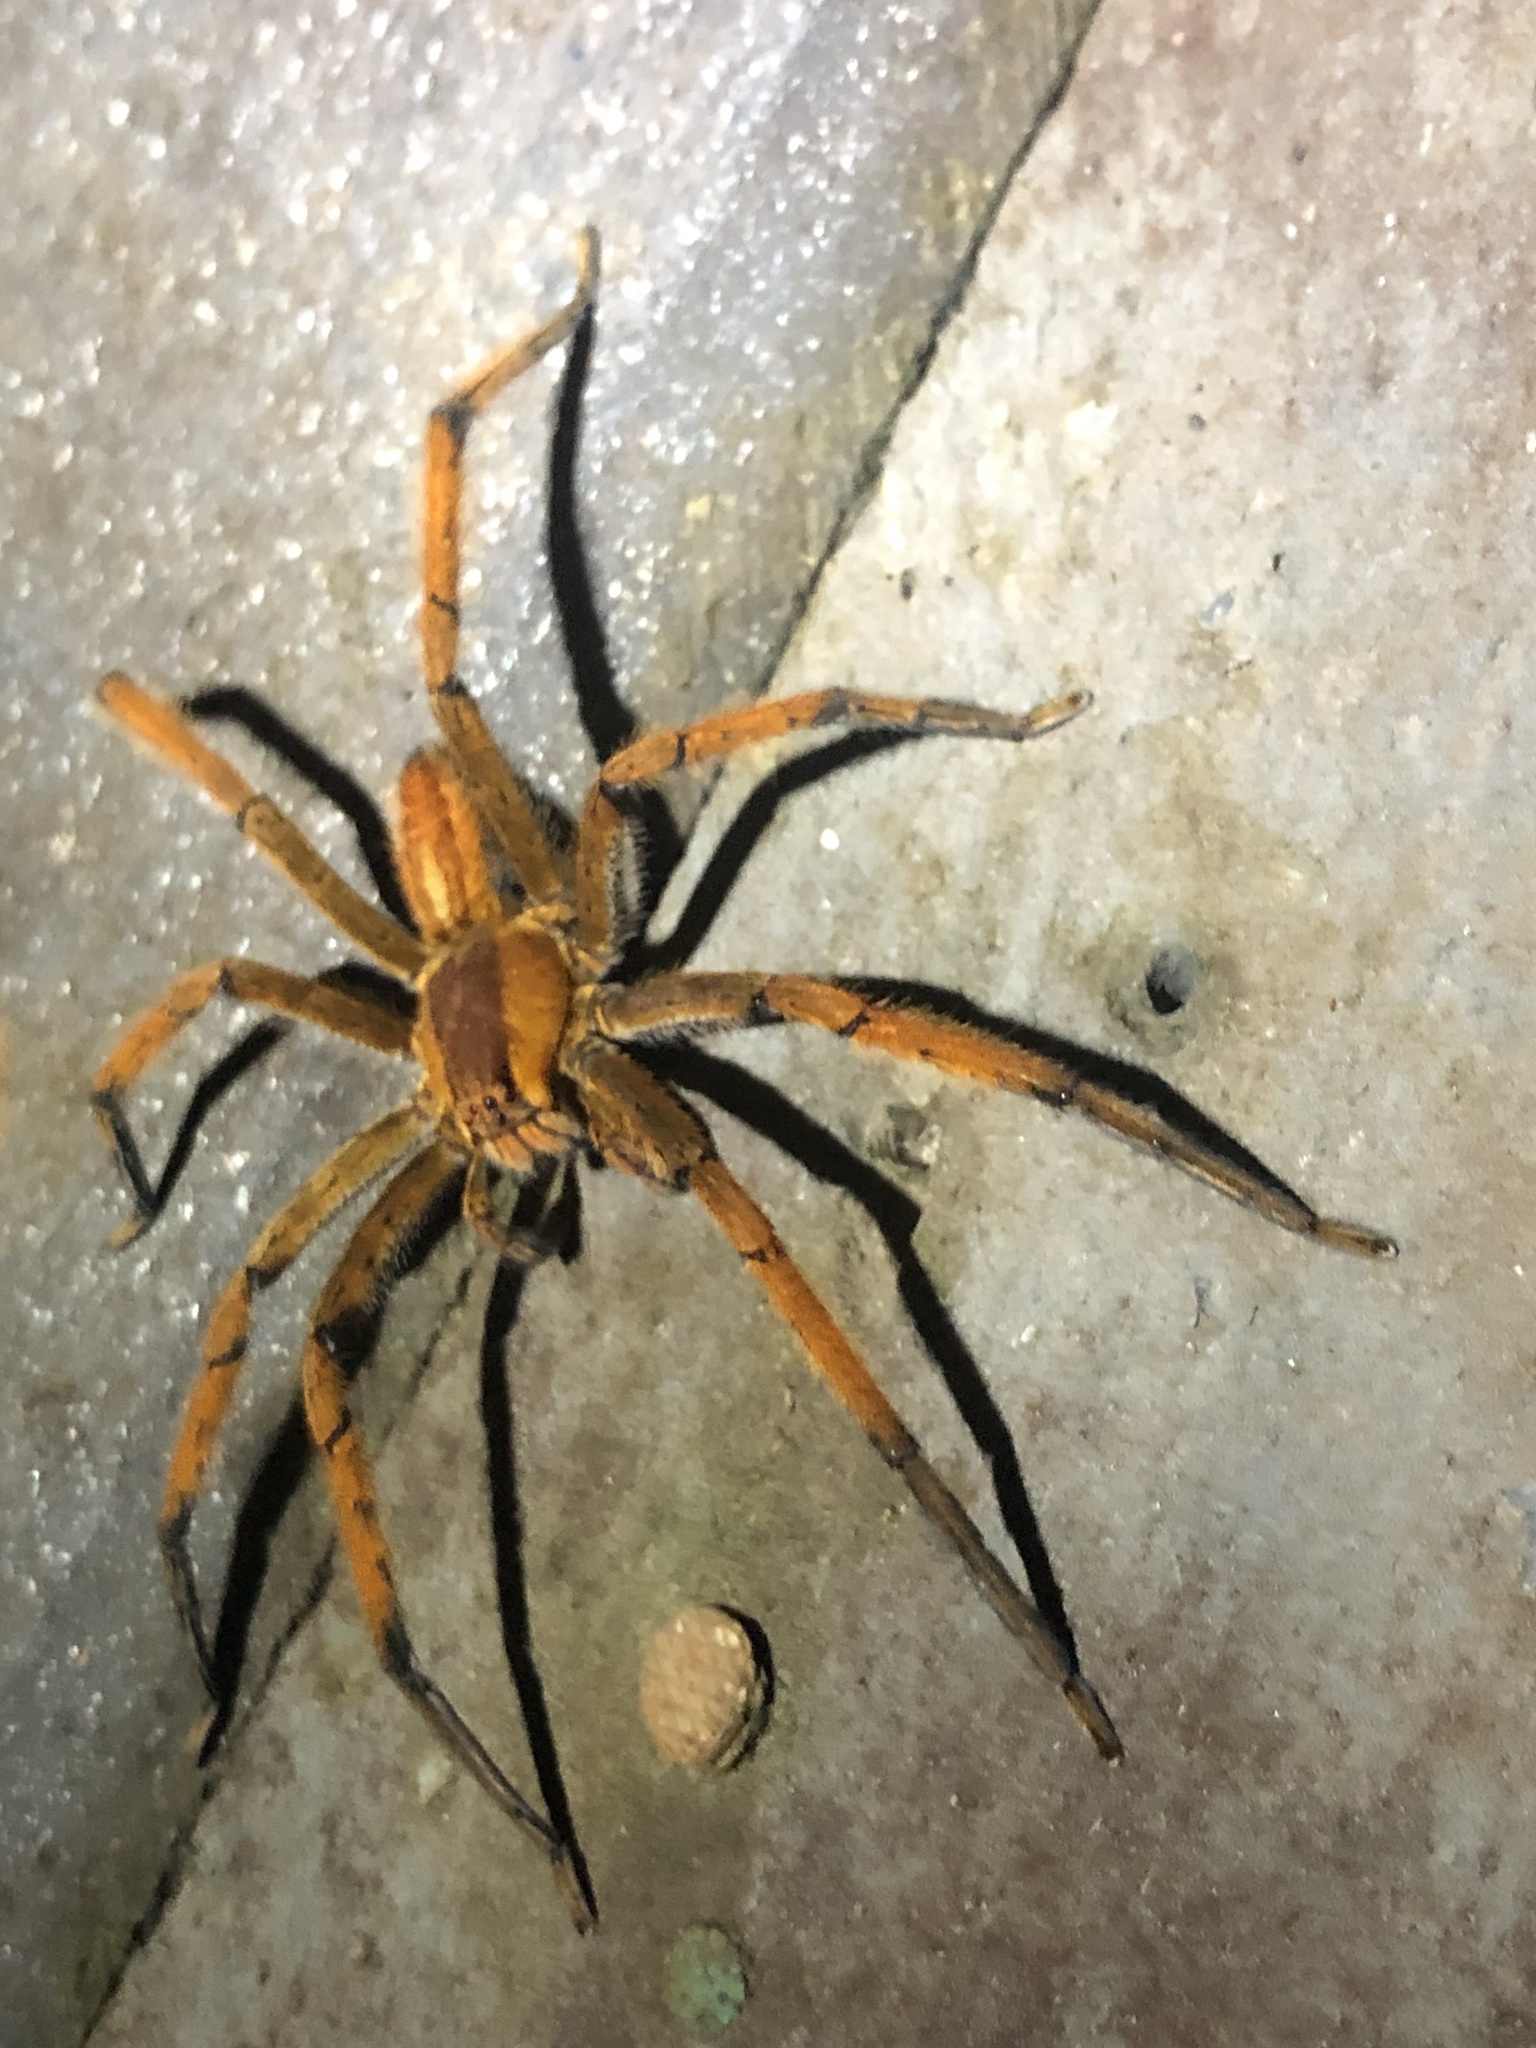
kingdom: Animalia
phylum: Arthropoda
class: Arachnida
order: Araneae
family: Trechaleidae
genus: Cupiennius
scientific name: Cupiennius getazi
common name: Wandering spiders
